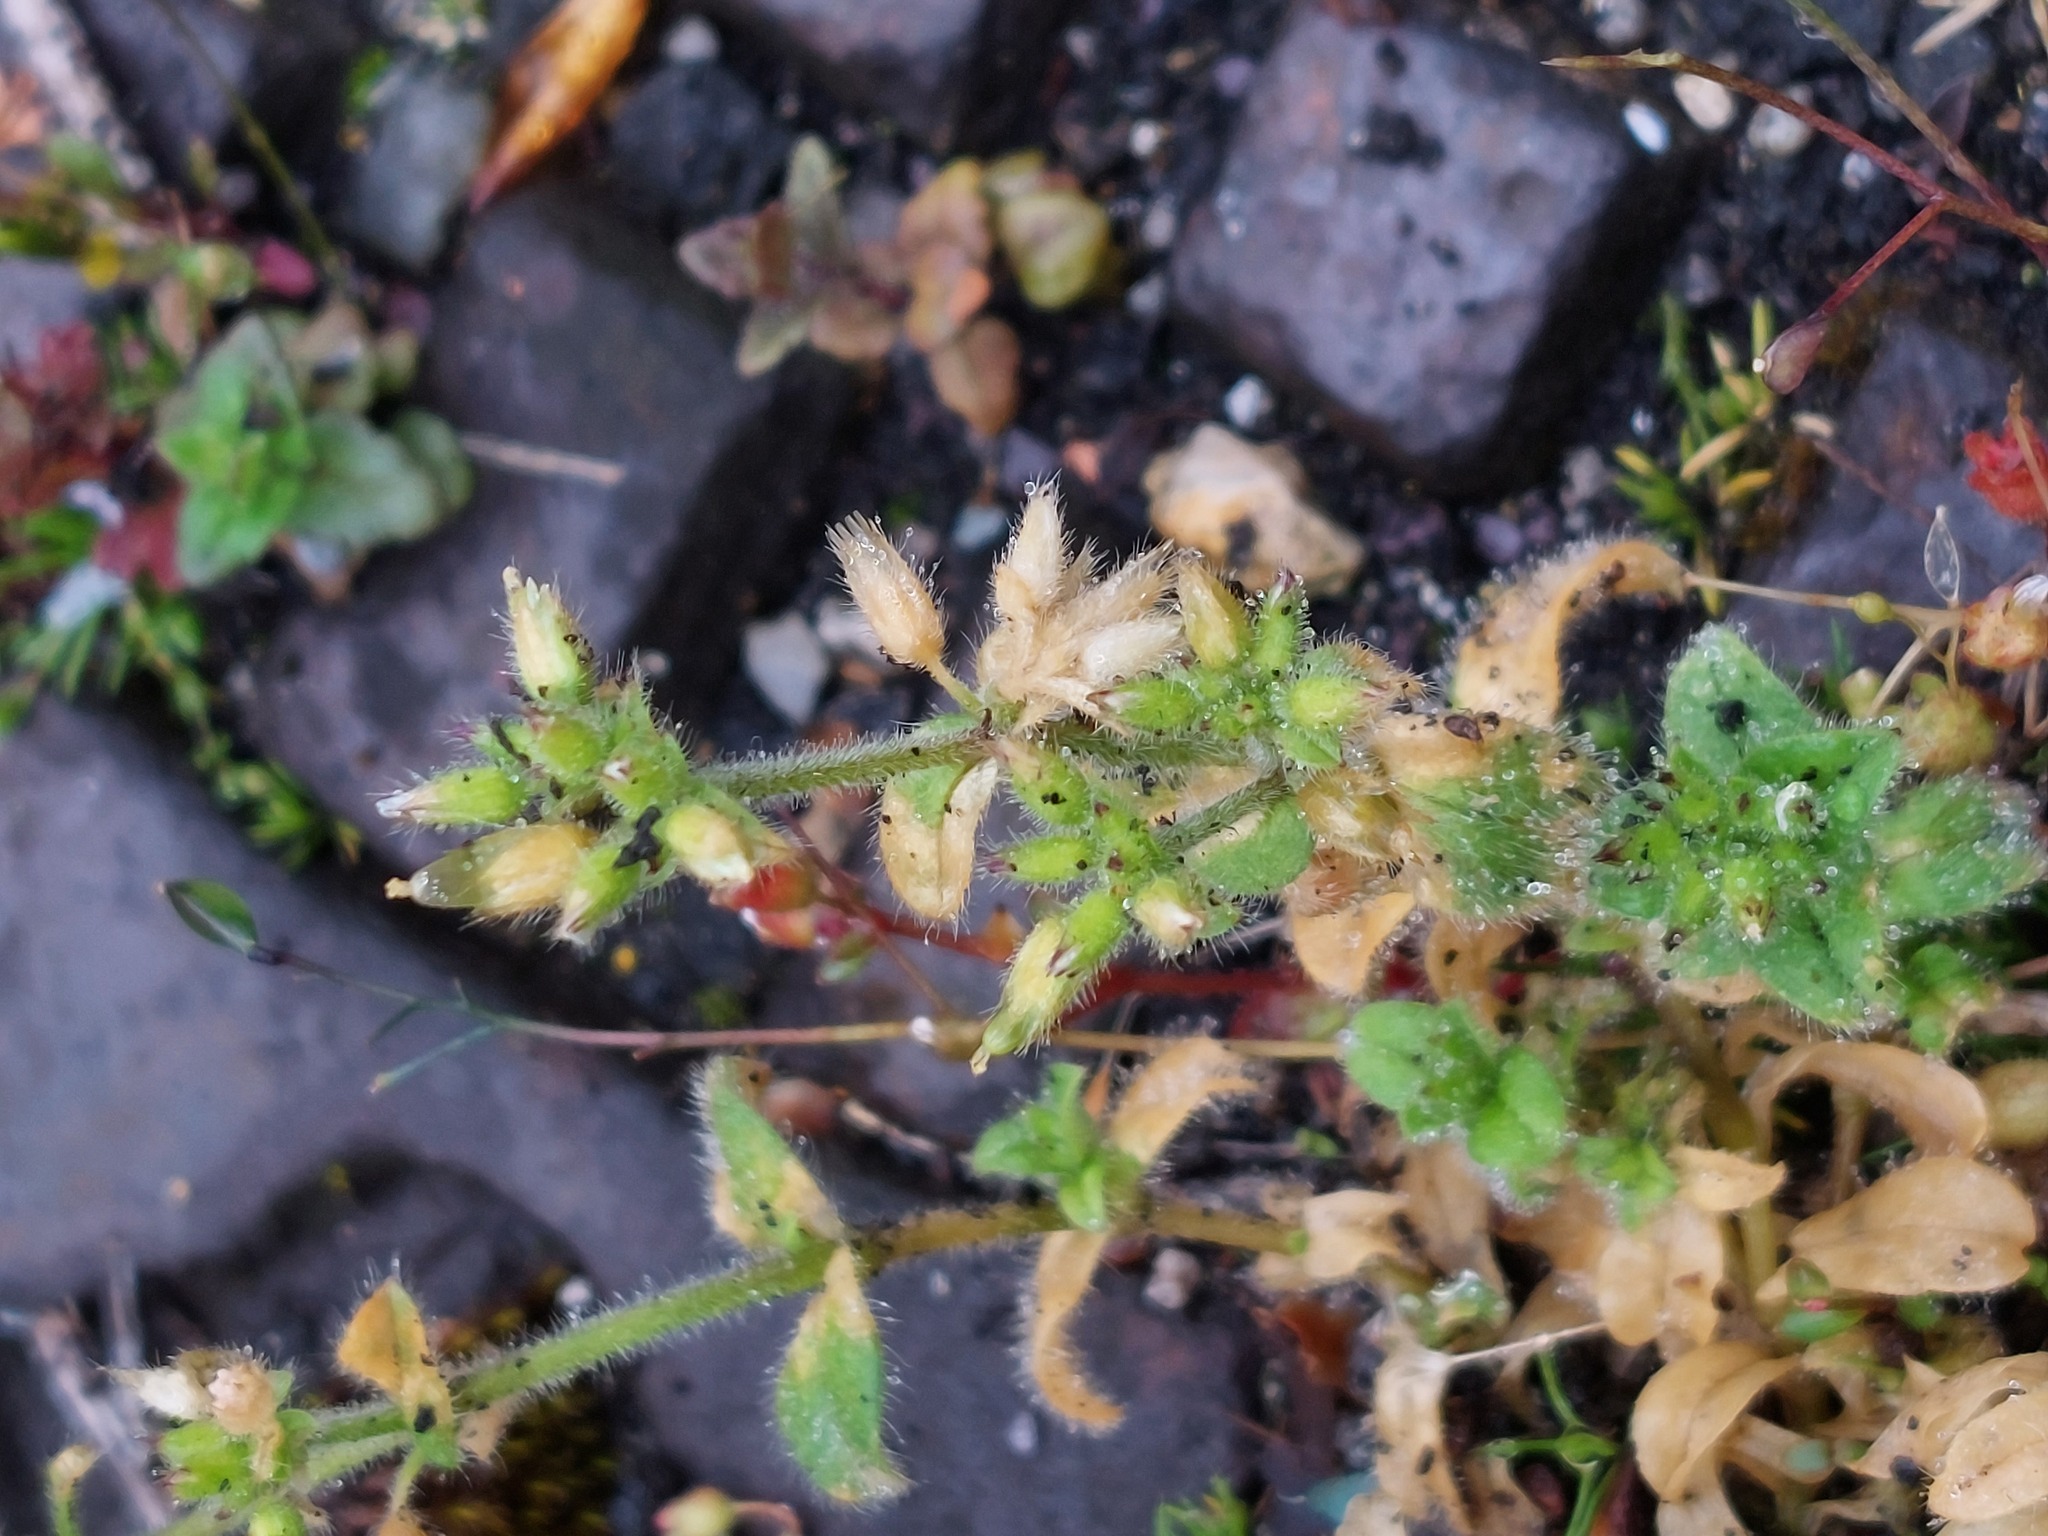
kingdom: Plantae
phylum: Tracheophyta
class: Magnoliopsida
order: Caryophyllales
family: Caryophyllaceae
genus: Cerastium
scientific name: Cerastium glomeratum
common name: Sticky chickweed
